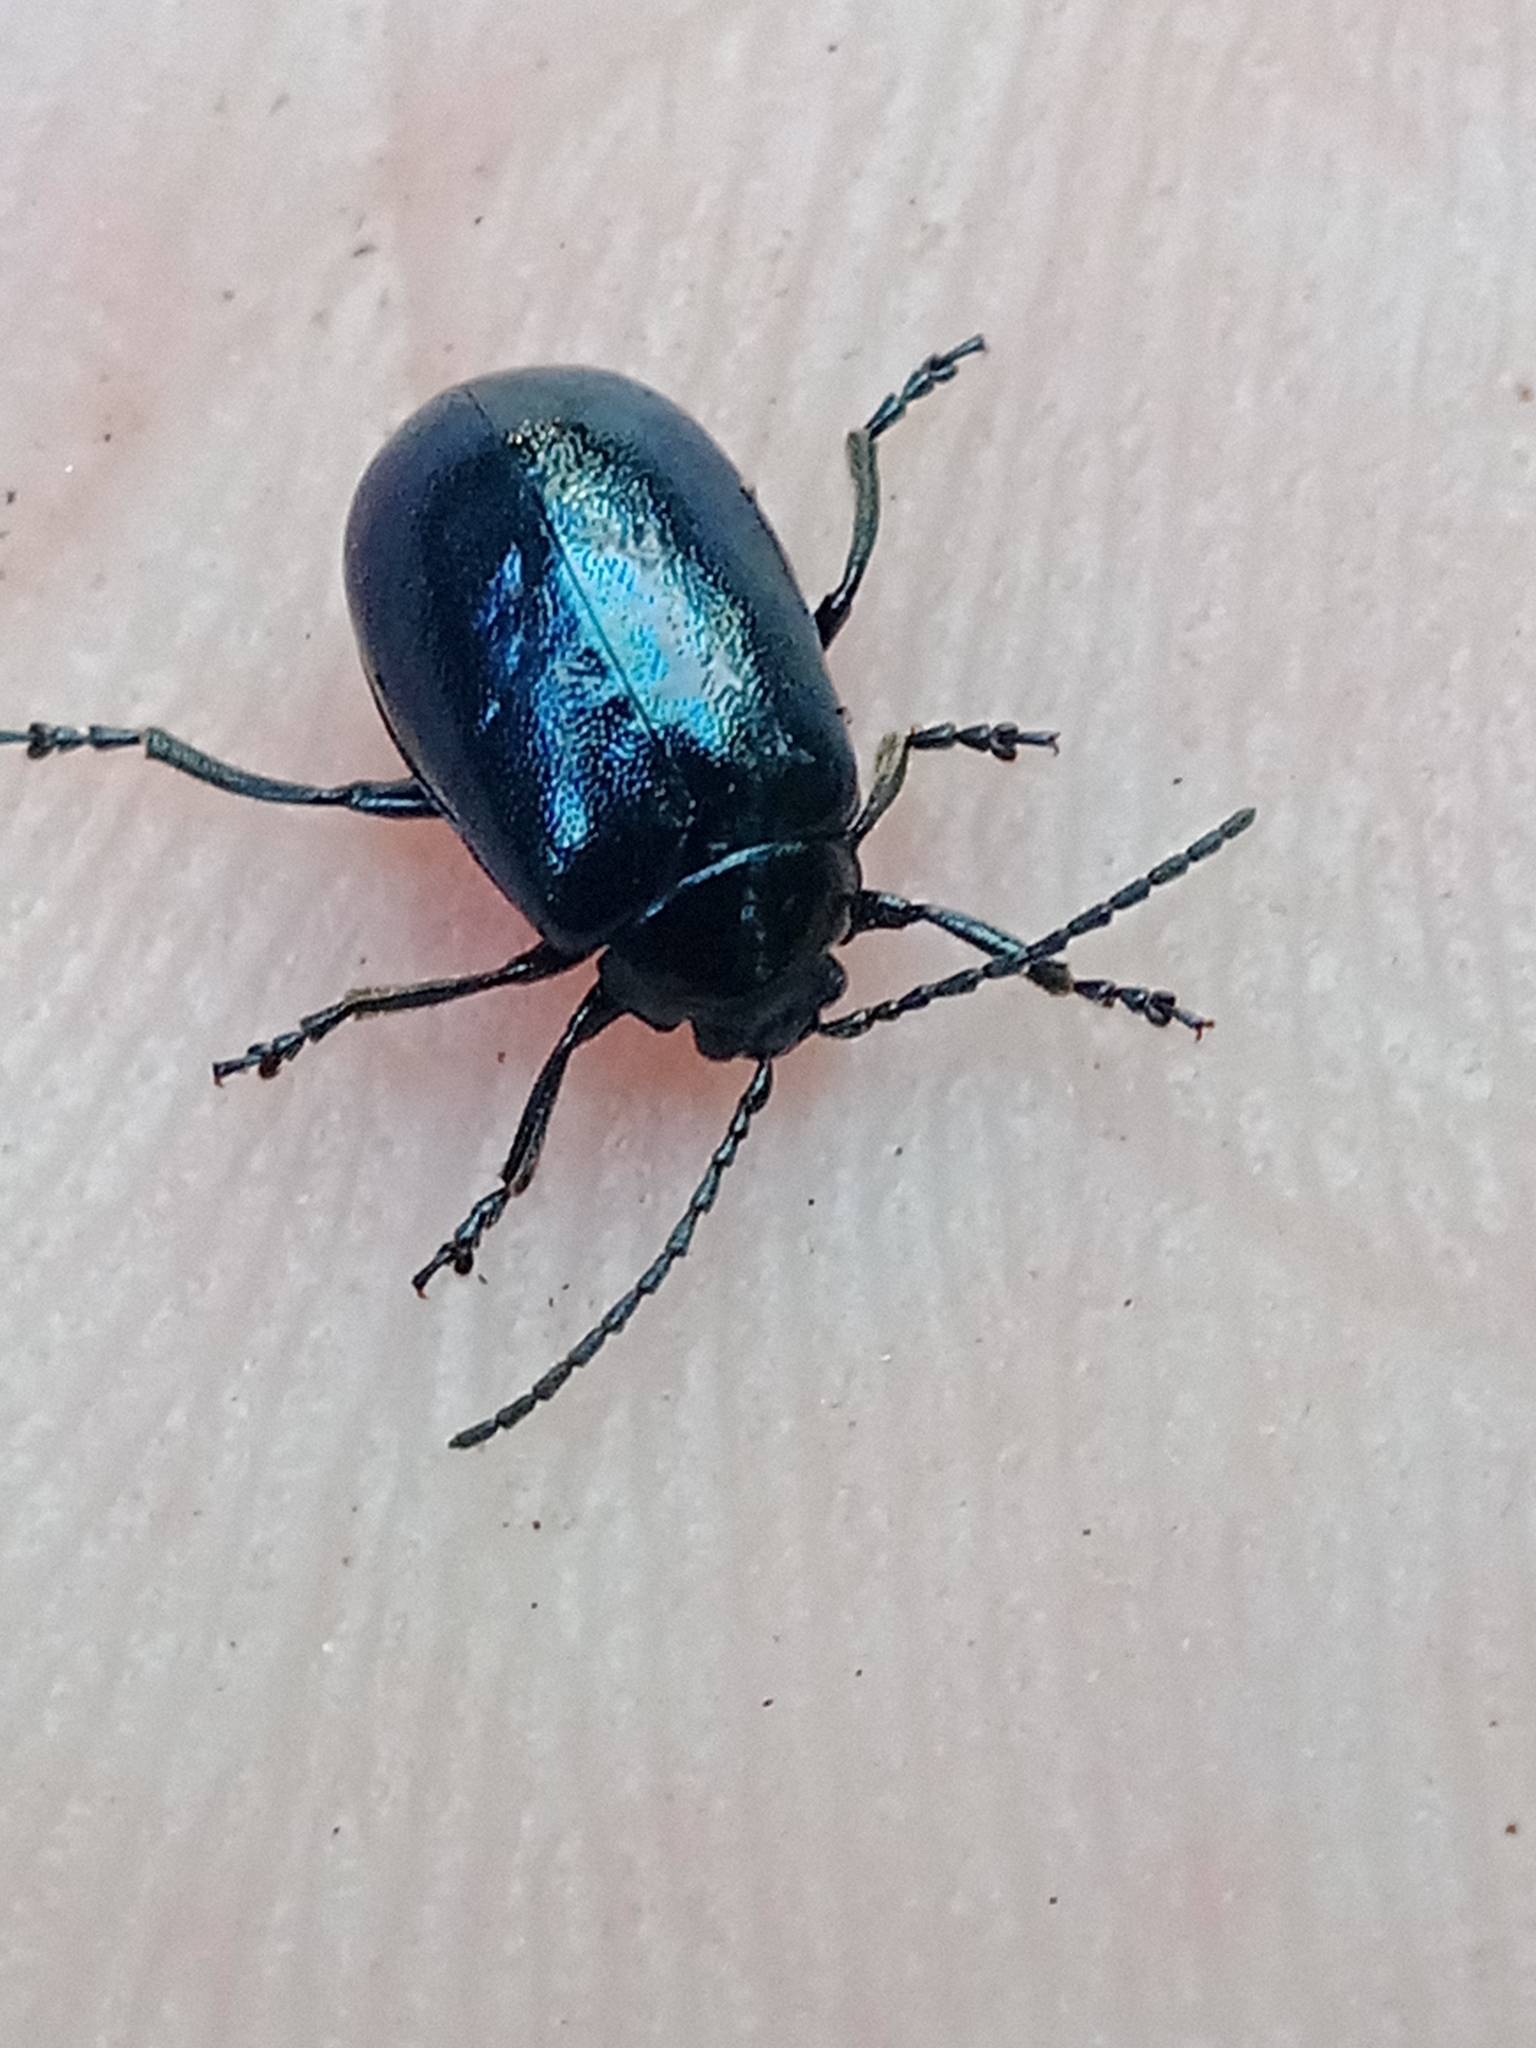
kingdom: Animalia
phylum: Arthropoda
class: Insecta
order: Coleoptera
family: Chrysomelidae
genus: Agelastica
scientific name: Agelastica alni
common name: Alder leaf beetle
